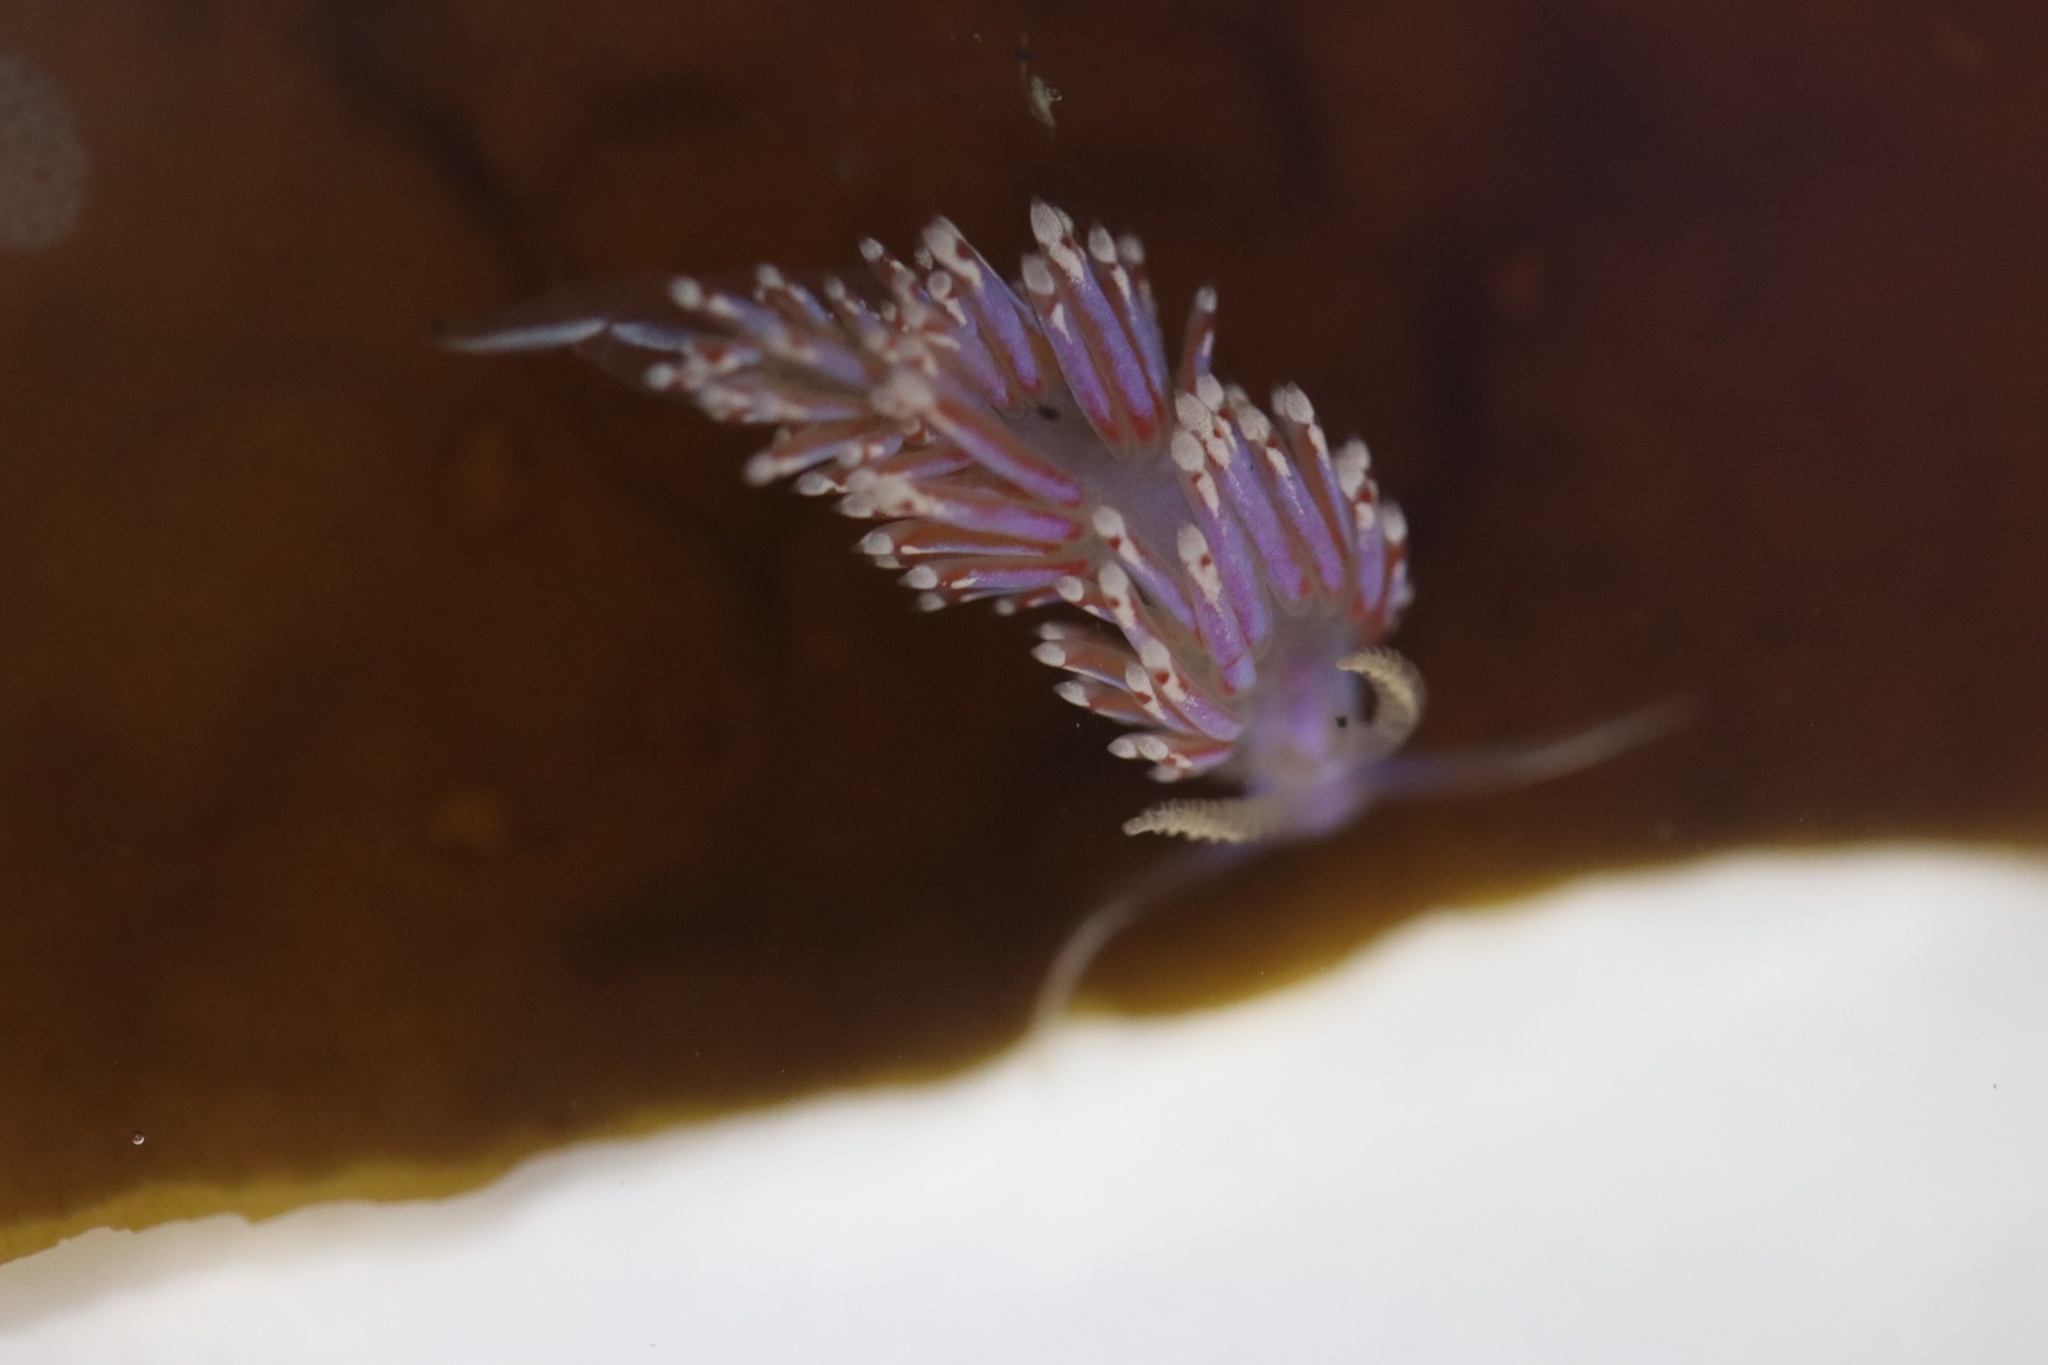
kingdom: Animalia
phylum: Mollusca
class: Gastropoda
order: Nudibranchia
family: Facelinidae
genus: Facelina
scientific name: Facelina auriculata
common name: Slender facelina
